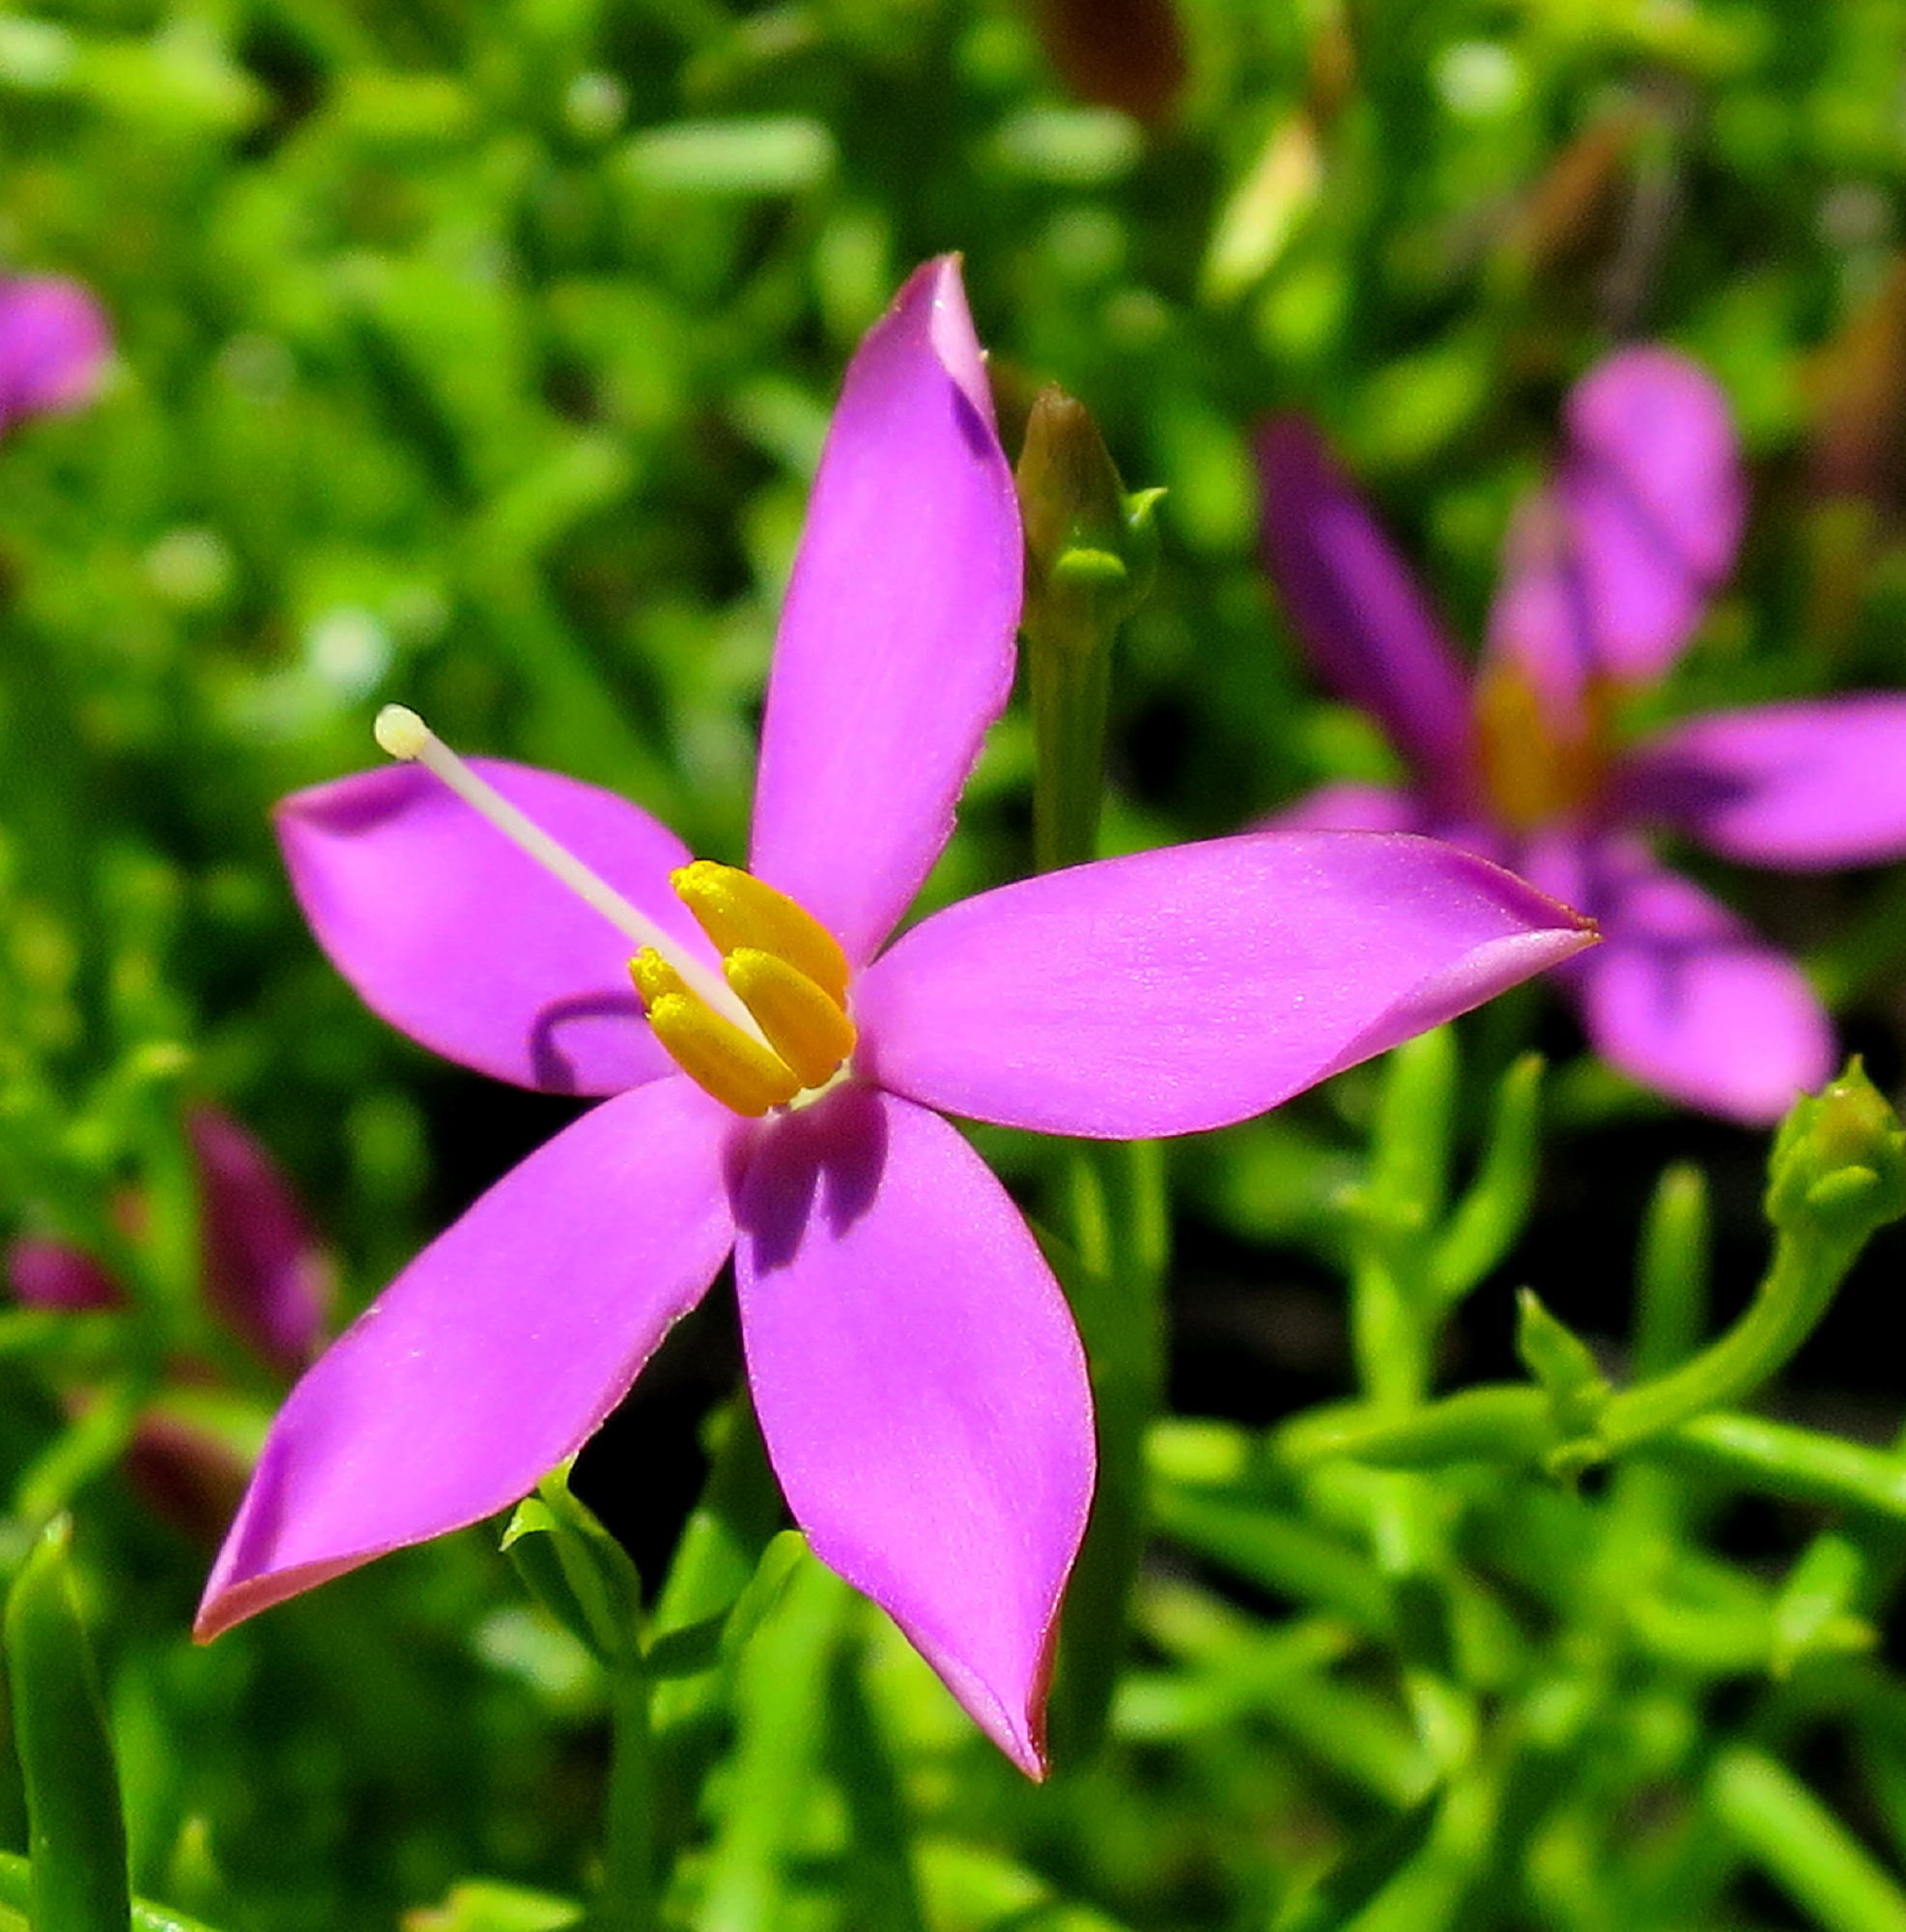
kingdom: Plantae
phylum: Tracheophyta
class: Magnoliopsida
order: Gentianales
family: Gentianaceae
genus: Chironia
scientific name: Chironia baccifera
